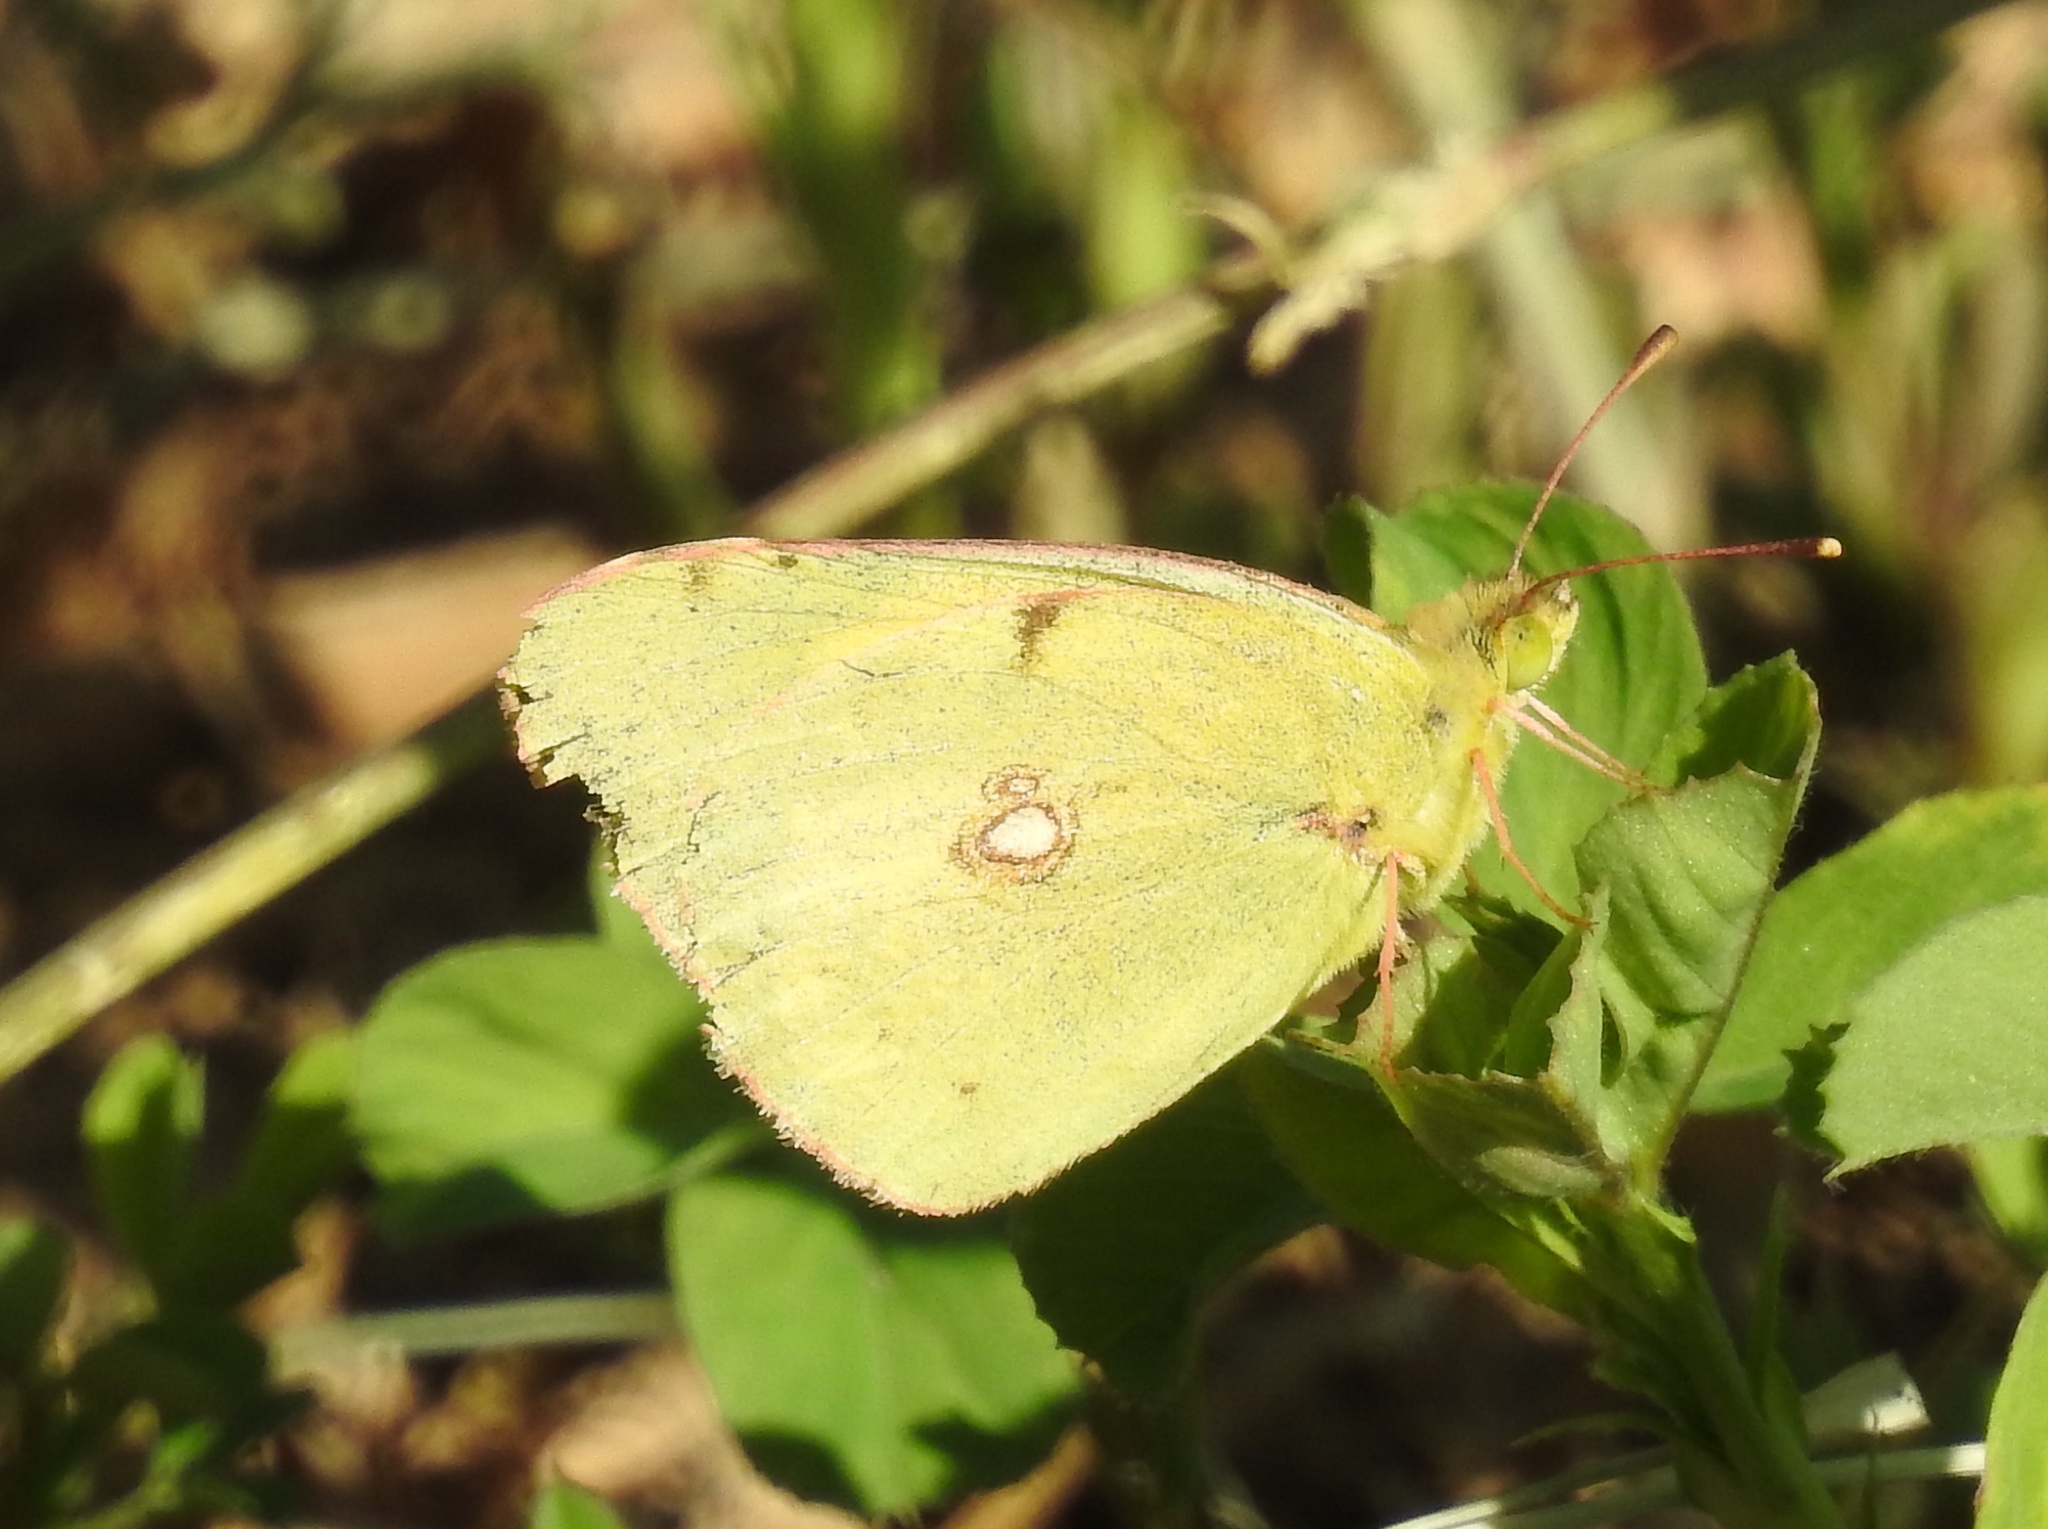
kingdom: Animalia
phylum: Arthropoda
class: Insecta
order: Lepidoptera
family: Pieridae
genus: Colias
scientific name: Colias croceus
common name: Clouded yellow
